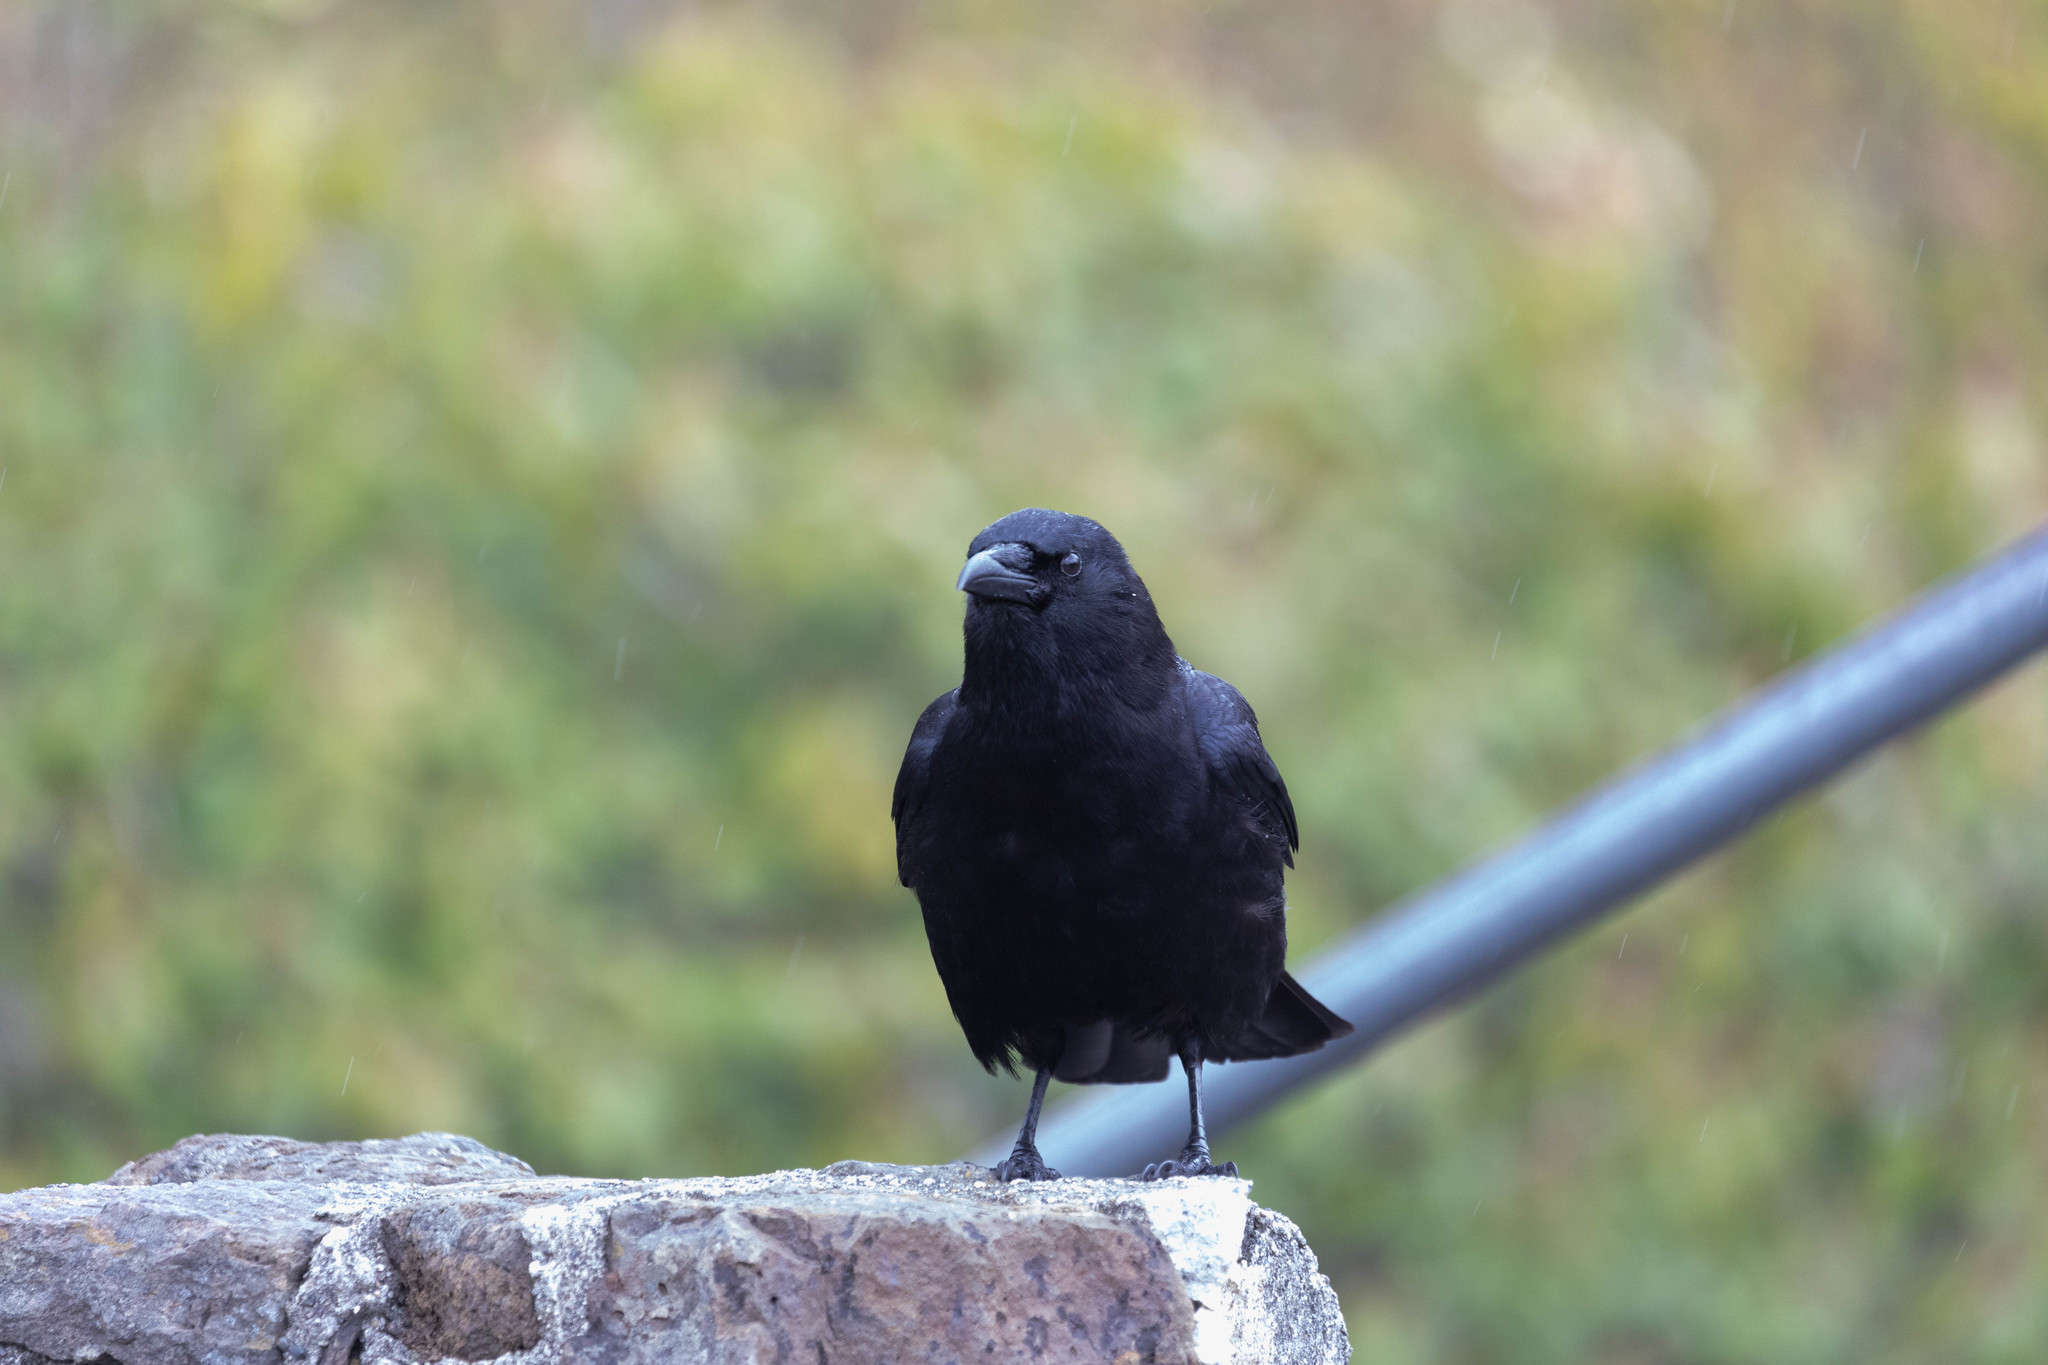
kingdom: Animalia
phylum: Chordata
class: Aves
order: Passeriformes
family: Corvidae
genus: Corvus
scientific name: Corvus brachyrhynchos
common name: American crow
